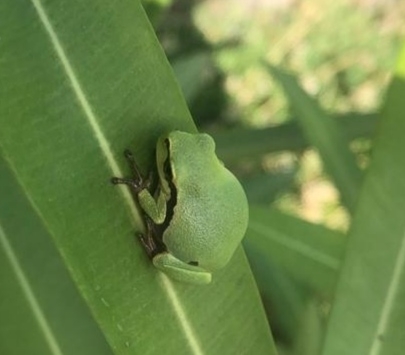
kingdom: Animalia
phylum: Chordata
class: Amphibia
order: Anura
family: Hylidae
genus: Hyla
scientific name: Hyla orientalis
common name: Caucasian treefrog
